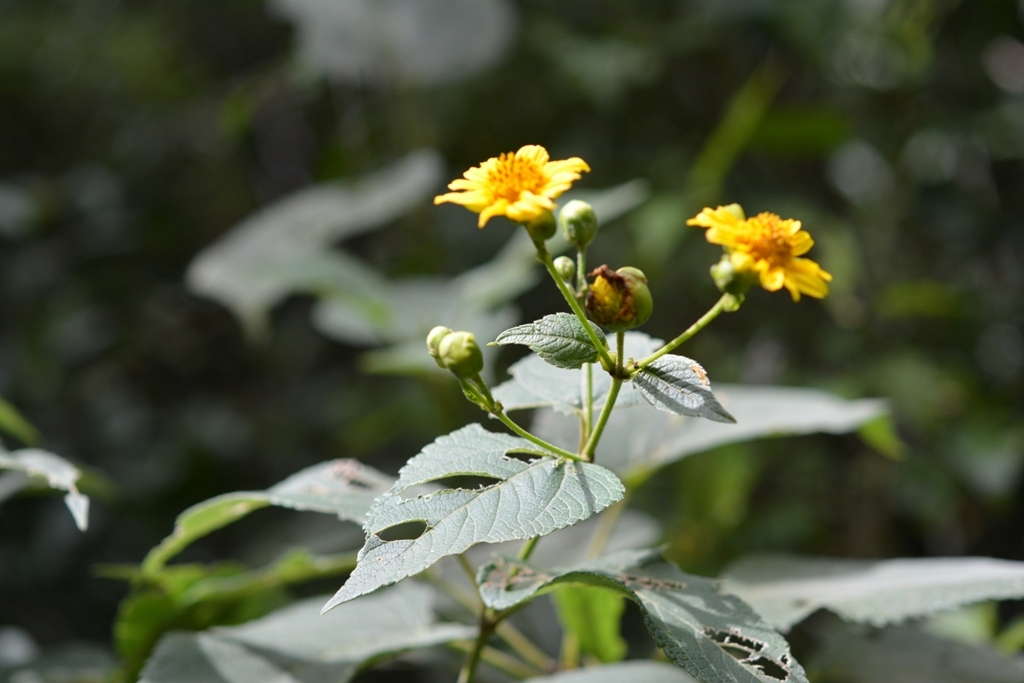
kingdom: Plantae
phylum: Tracheophyta
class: Magnoliopsida
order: Asterales
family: Asteraceae
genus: Lasianthaea
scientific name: Lasianthaea fruticosa
